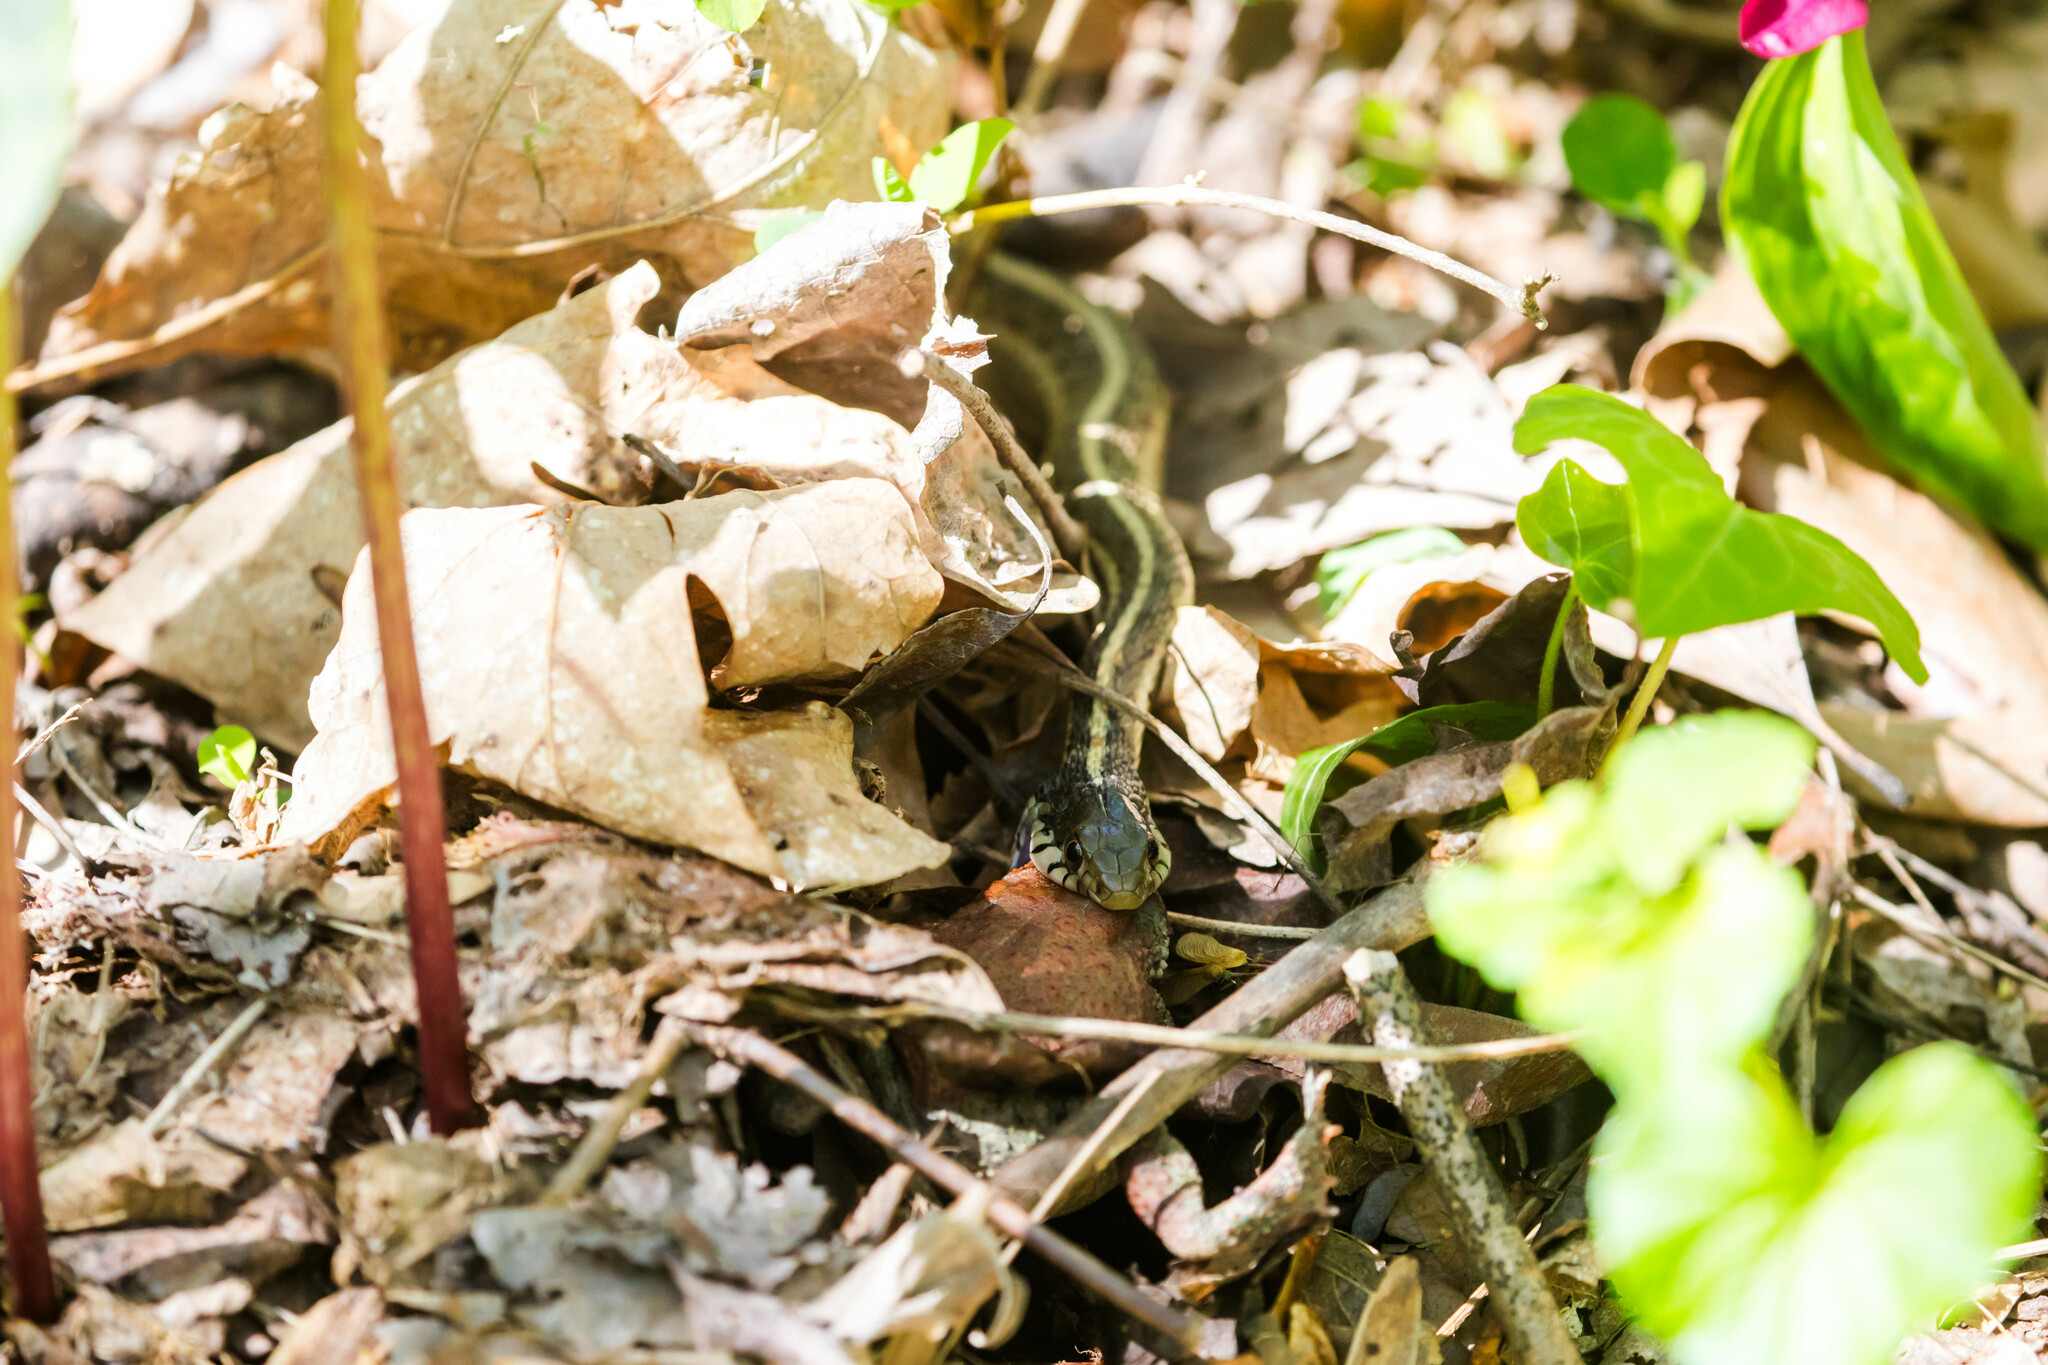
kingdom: Animalia
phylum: Chordata
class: Squamata
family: Colubridae
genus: Thamnophis
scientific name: Thamnophis sirtalis
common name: Common garter snake
